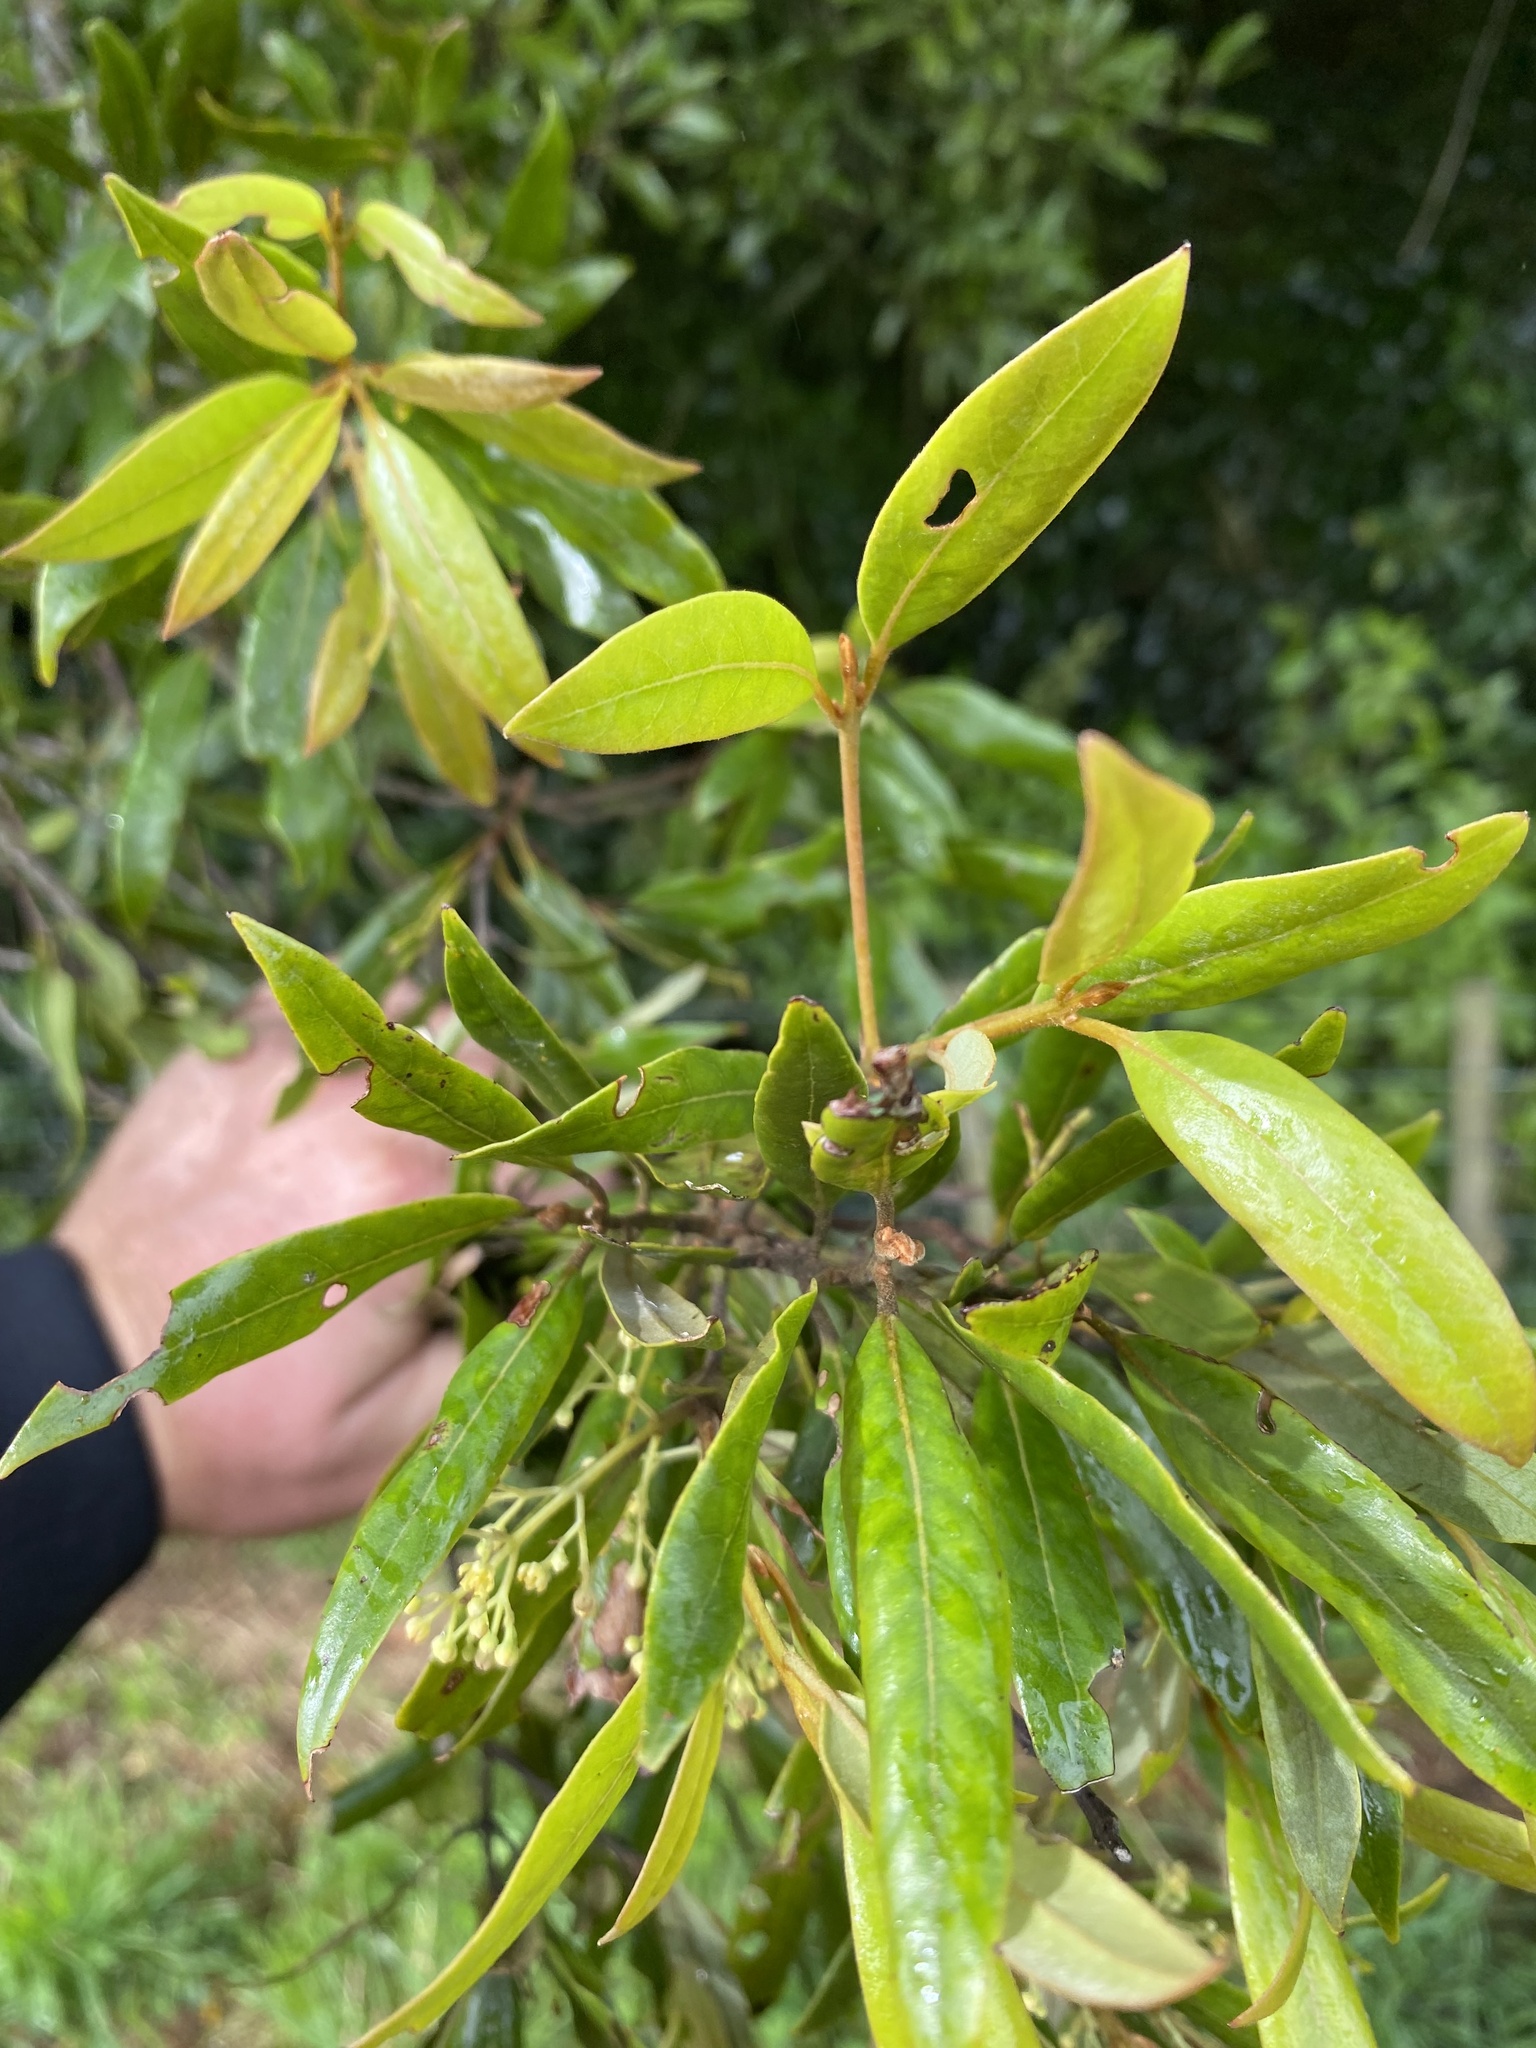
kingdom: Plantae
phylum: Tracheophyta
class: Magnoliopsida
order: Laurales
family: Lauraceae
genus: Beilschmiedia
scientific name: Beilschmiedia tawa
